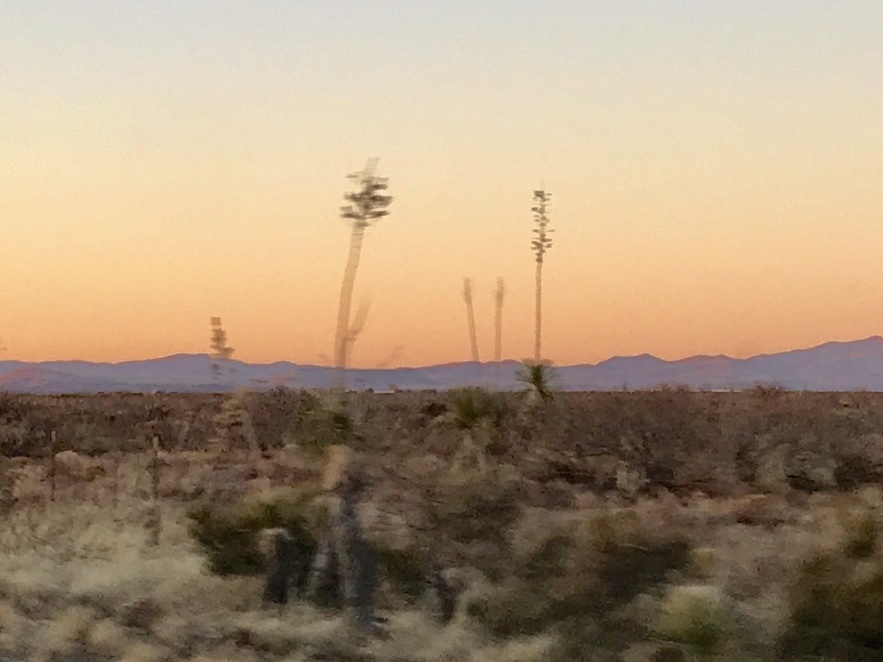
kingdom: Plantae
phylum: Tracheophyta
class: Liliopsida
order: Asparagales
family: Asparagaceae
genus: Yucca
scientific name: Yucca elata
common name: Palmella
